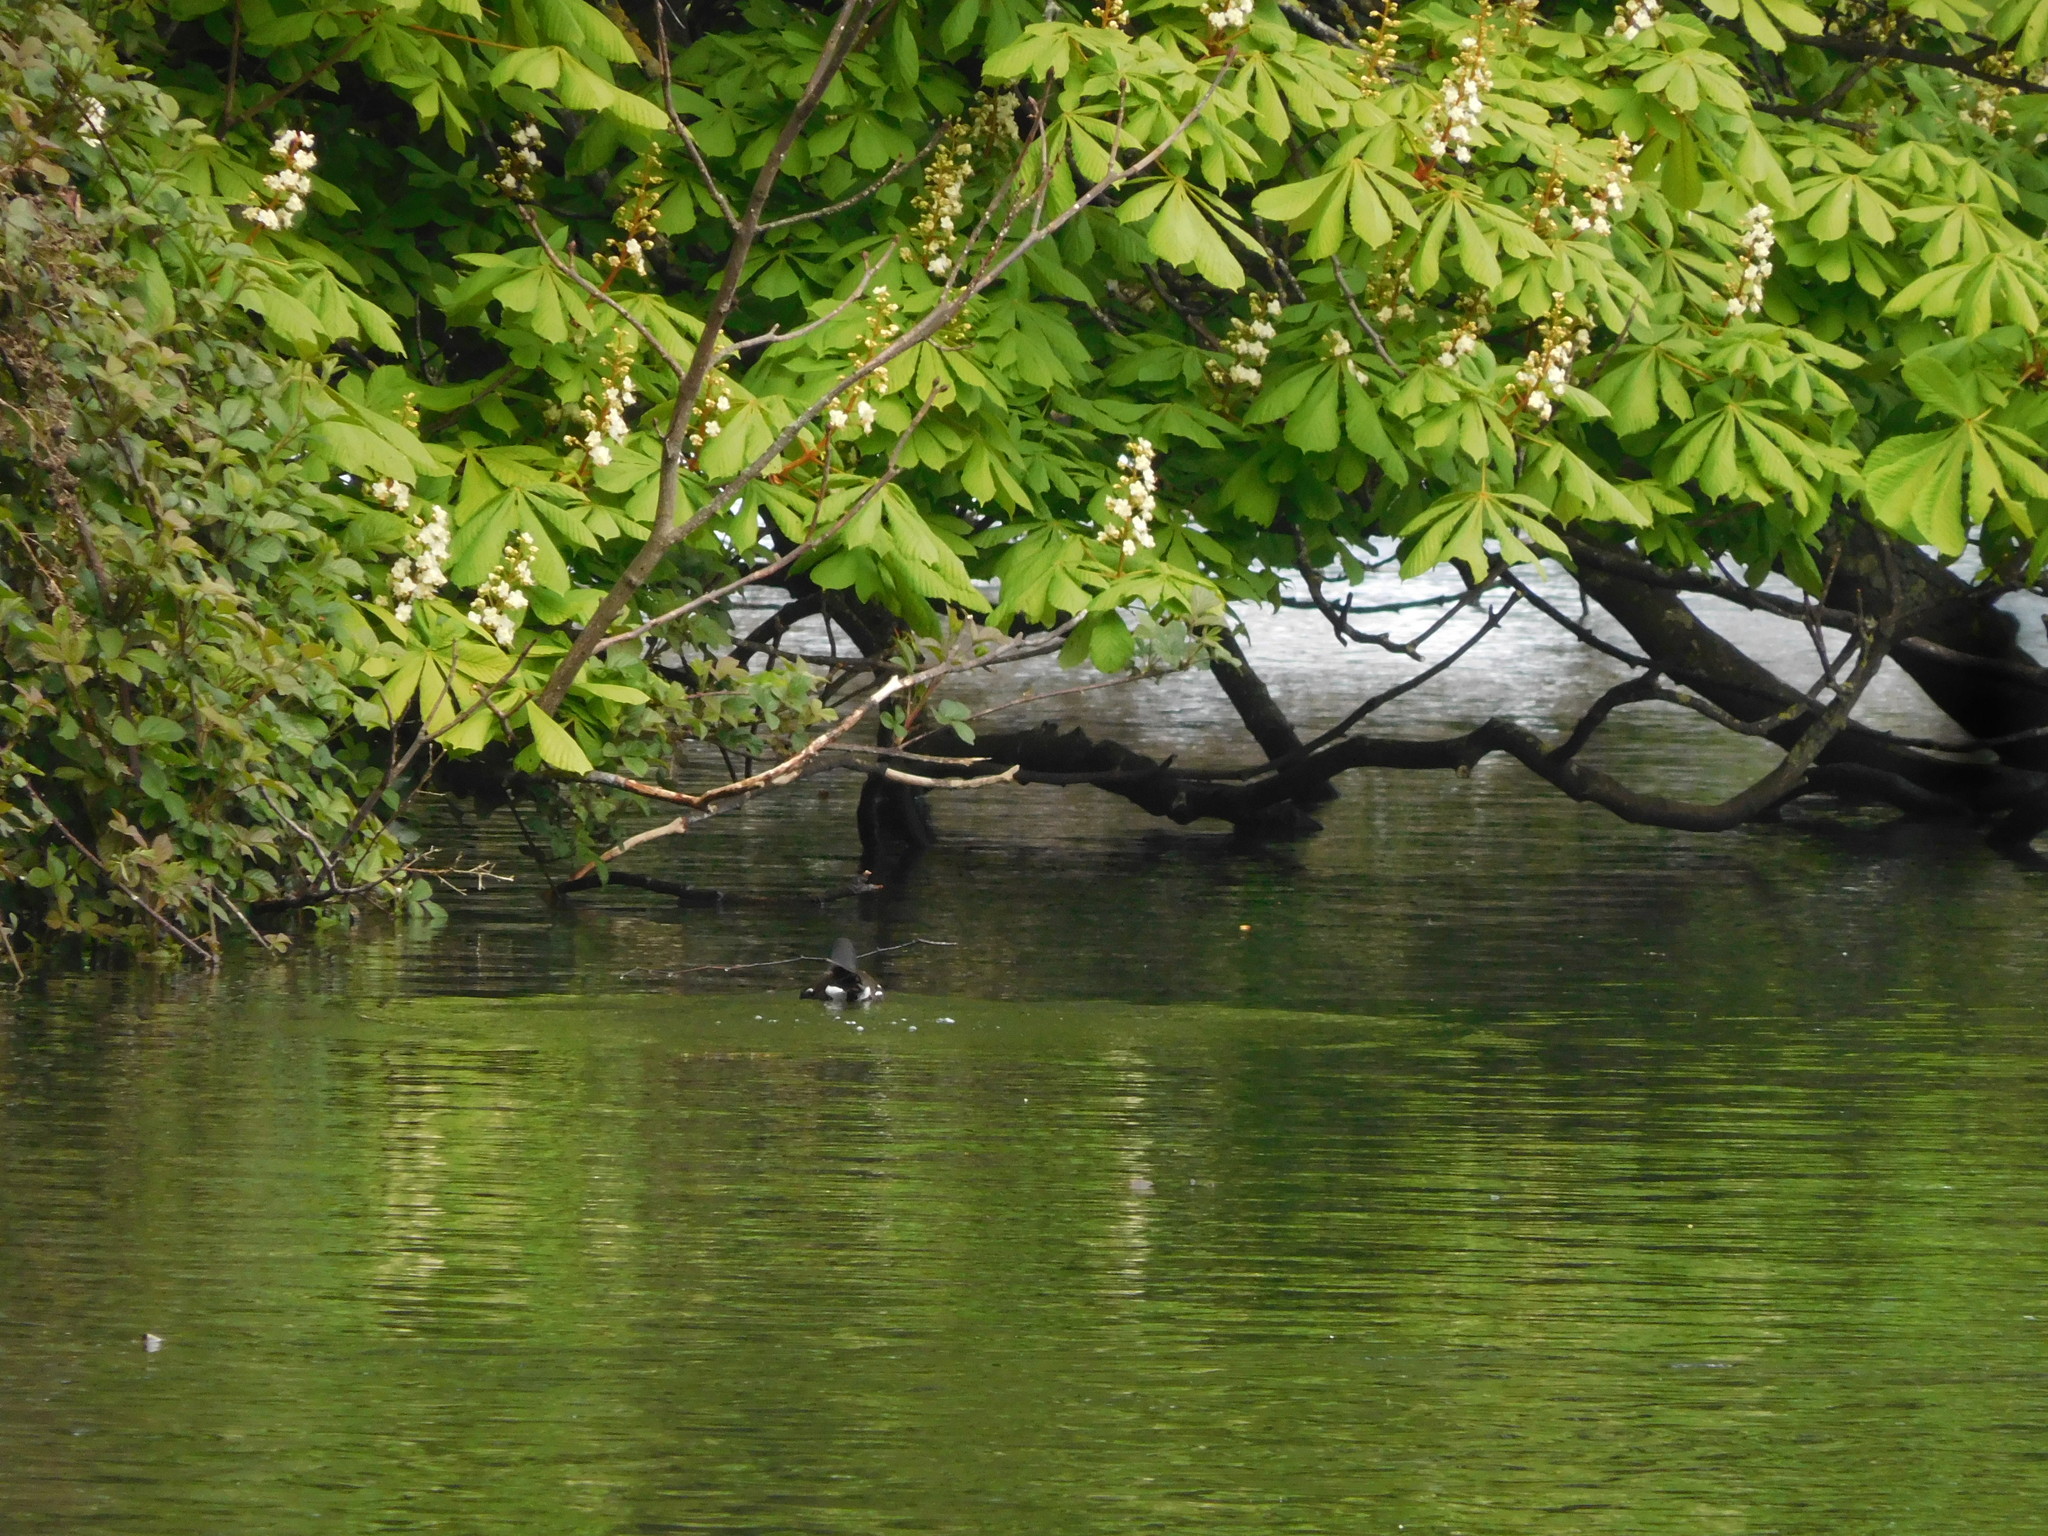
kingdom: Animalia
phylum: Chordata
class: Aves
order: Gruiformes
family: Rallidae
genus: Gallinula
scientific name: Gallinula chloropus
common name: Common moorhen
